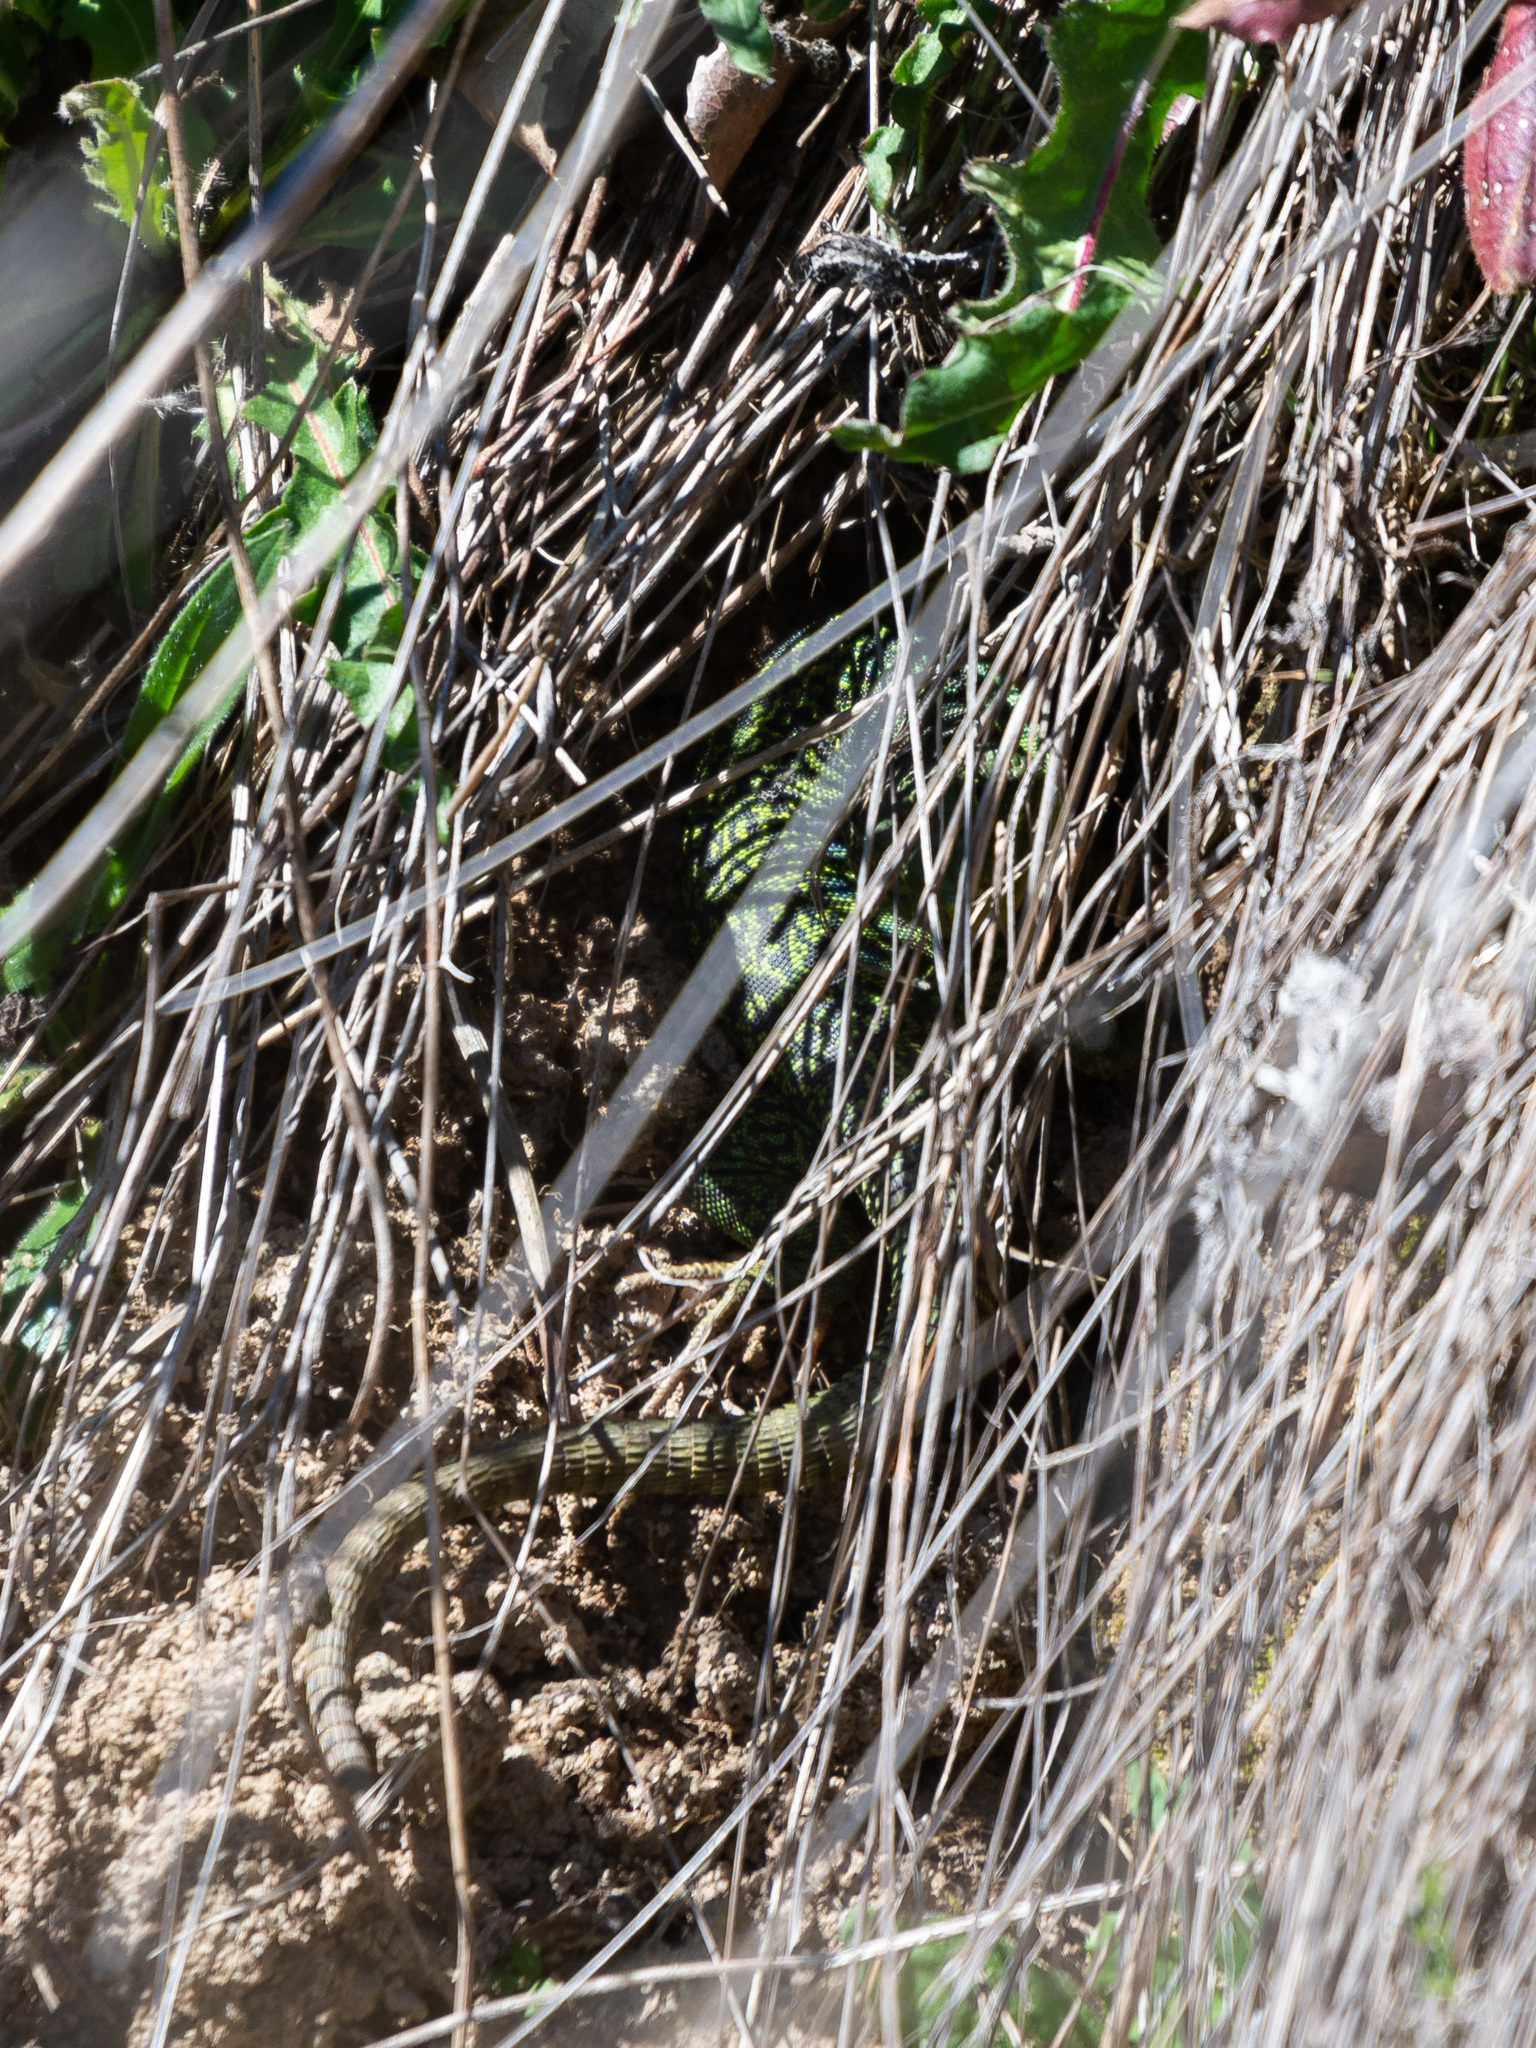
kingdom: Animalia
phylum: Chordata
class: Squamata
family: Lacertidae
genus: Timon
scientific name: Timon lepidus
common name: Ocellated lizard
